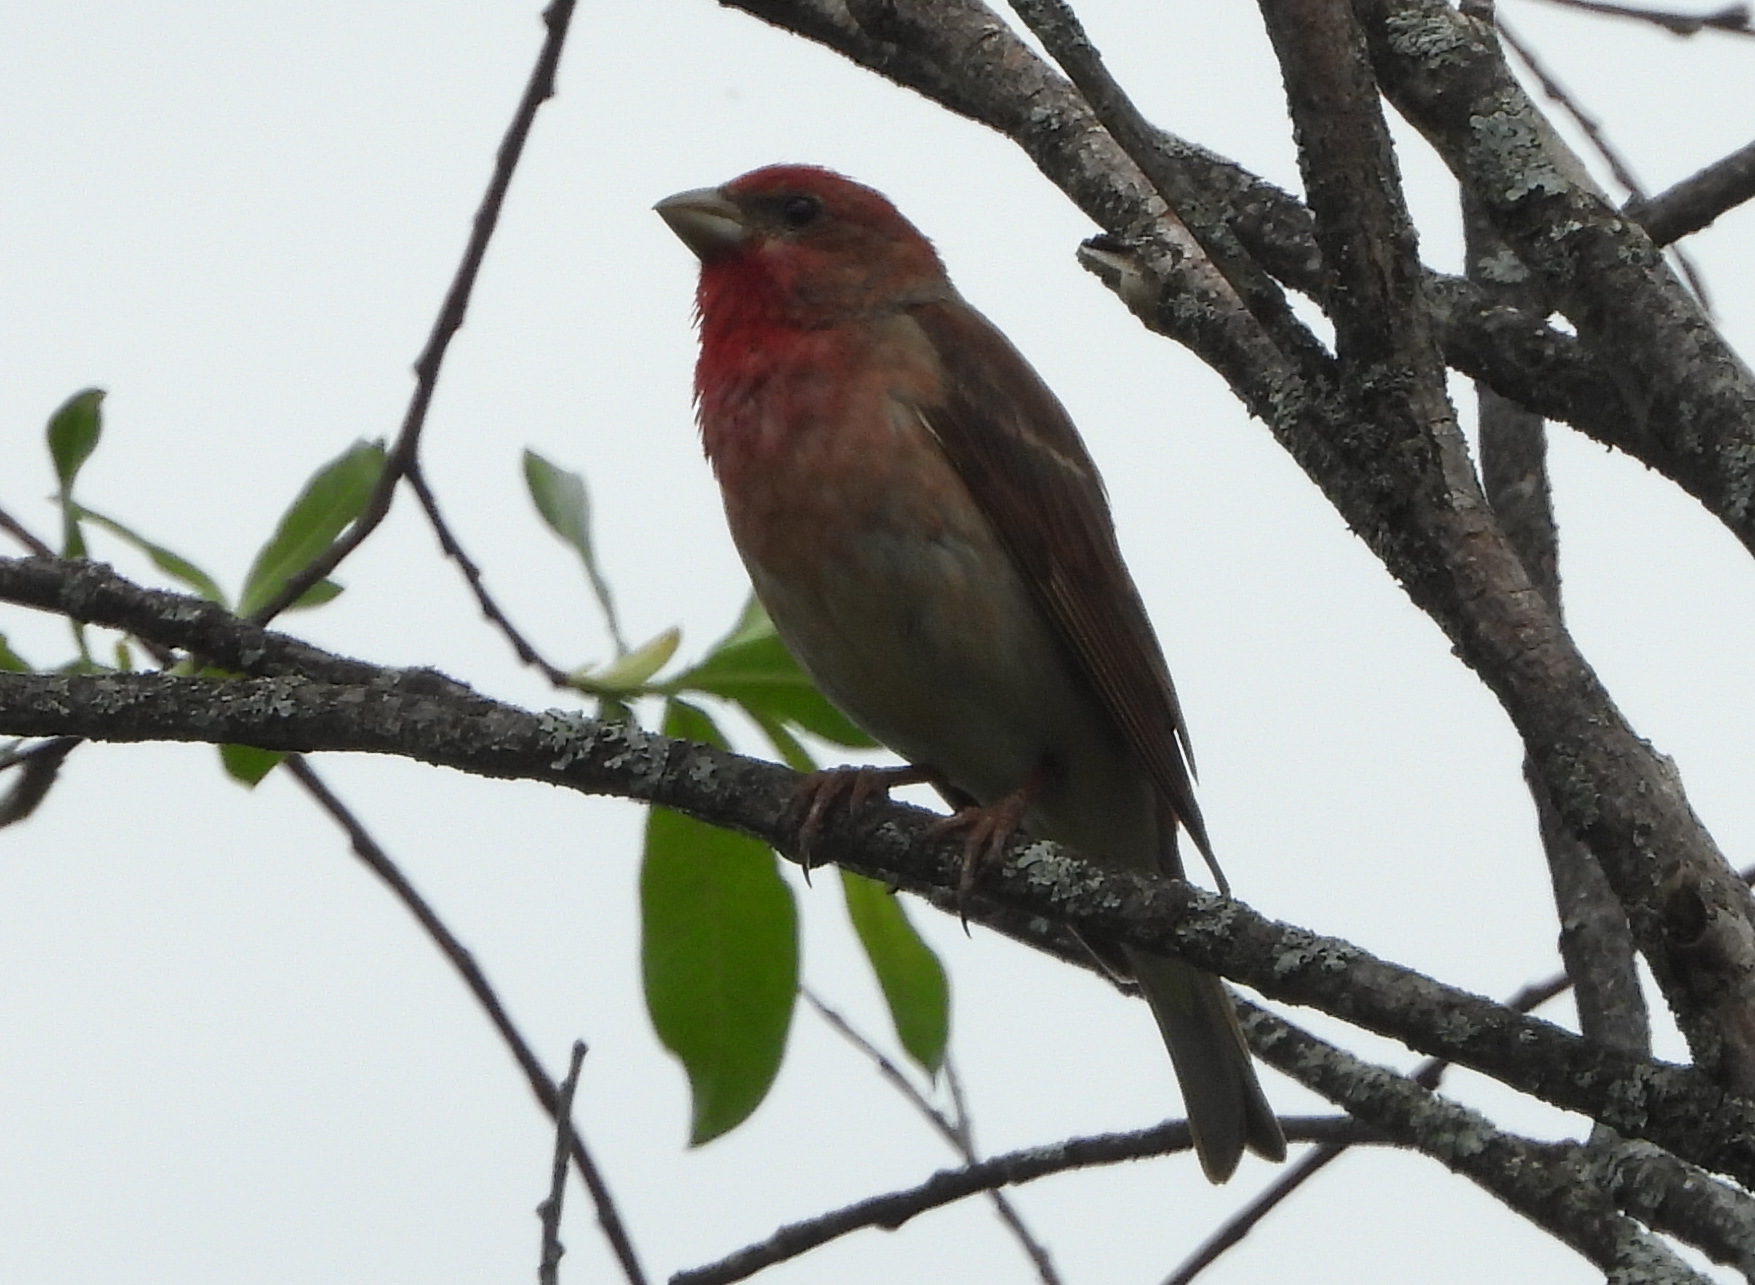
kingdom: Animalia
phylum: Chordata
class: Aves
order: Passeriformes
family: Fringillidae
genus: Carpodacus
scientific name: Carpodacus erythrinus
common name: Common rosefinch
